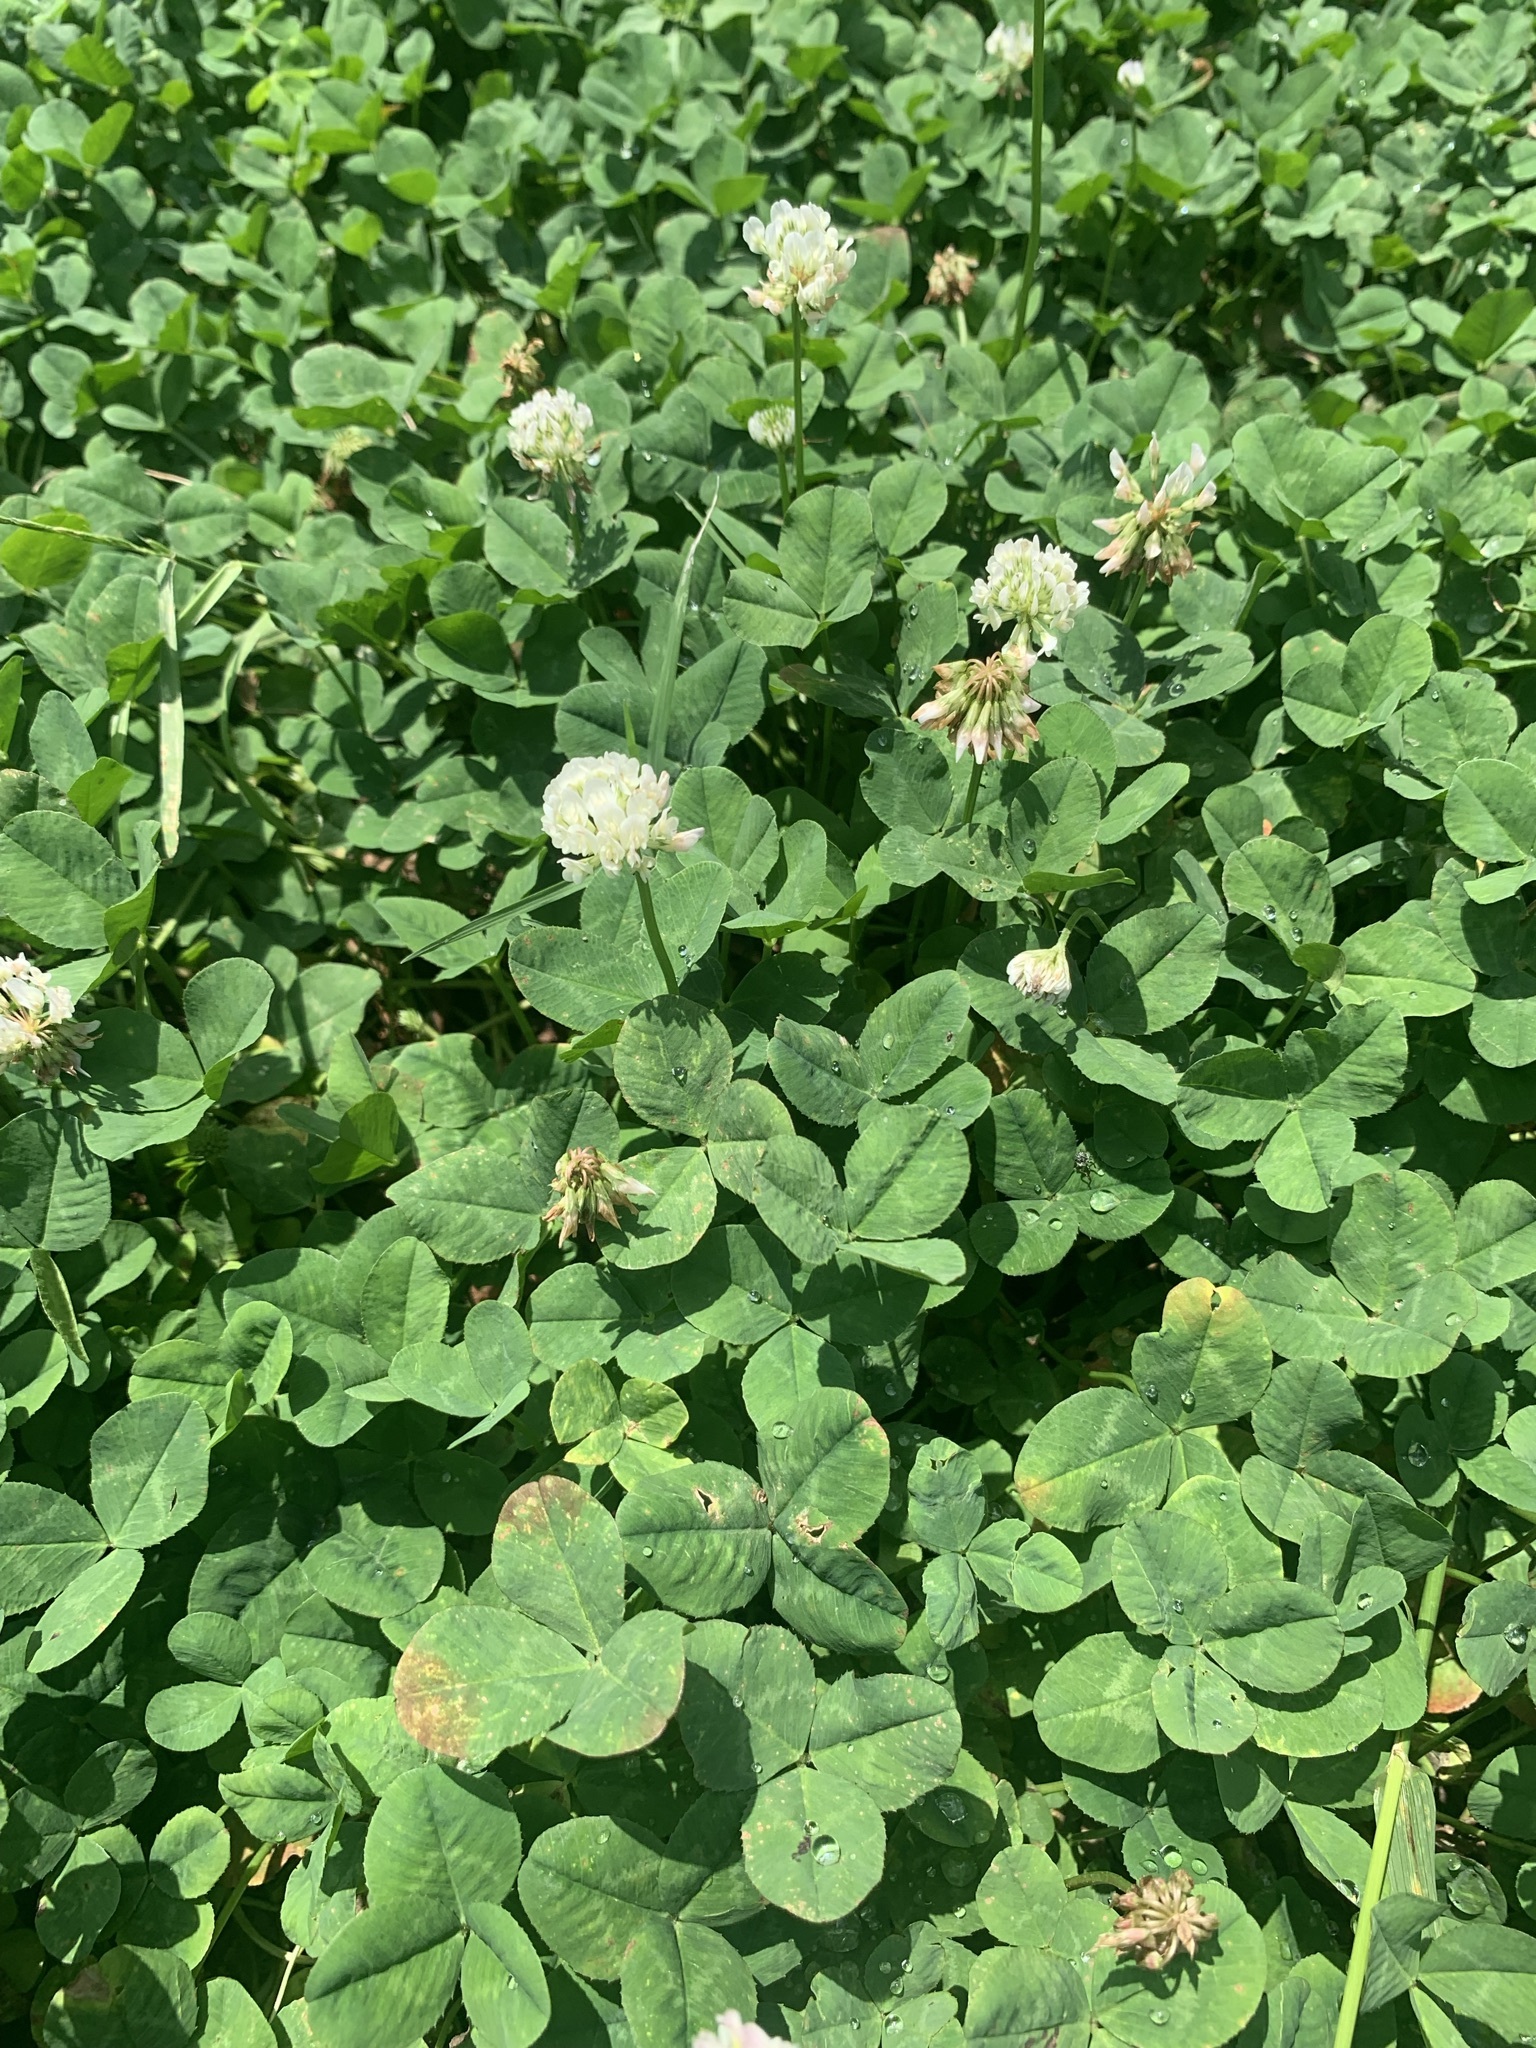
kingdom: Plantae
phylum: Tracheophyta
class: Magnoliopsida
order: Fabales
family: Fabaceae
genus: Trifolium
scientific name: Trifolium repens
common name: White clover
